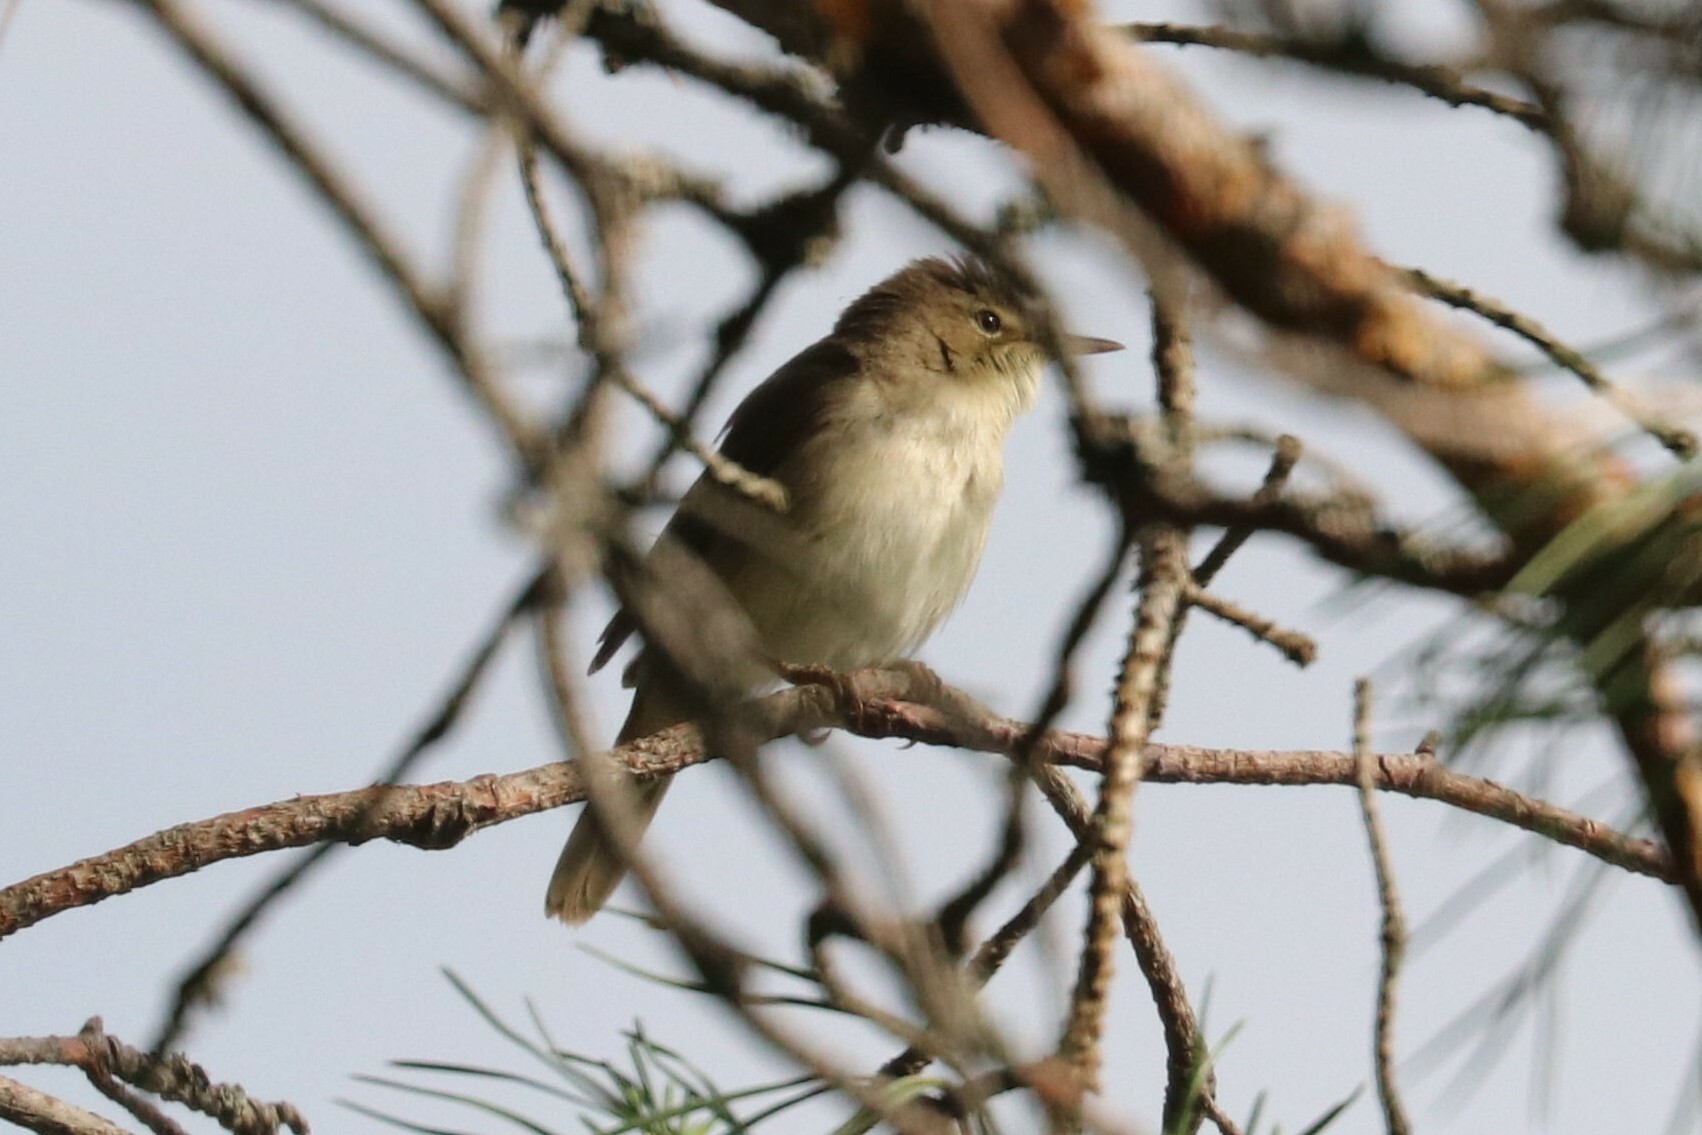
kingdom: Animalia
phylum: Chordata
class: Aves
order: Passeriformes
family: Acrocephalidae
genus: Acrocephalus
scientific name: Acrocephalus dumetorum
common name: Blyth's reed warbler
